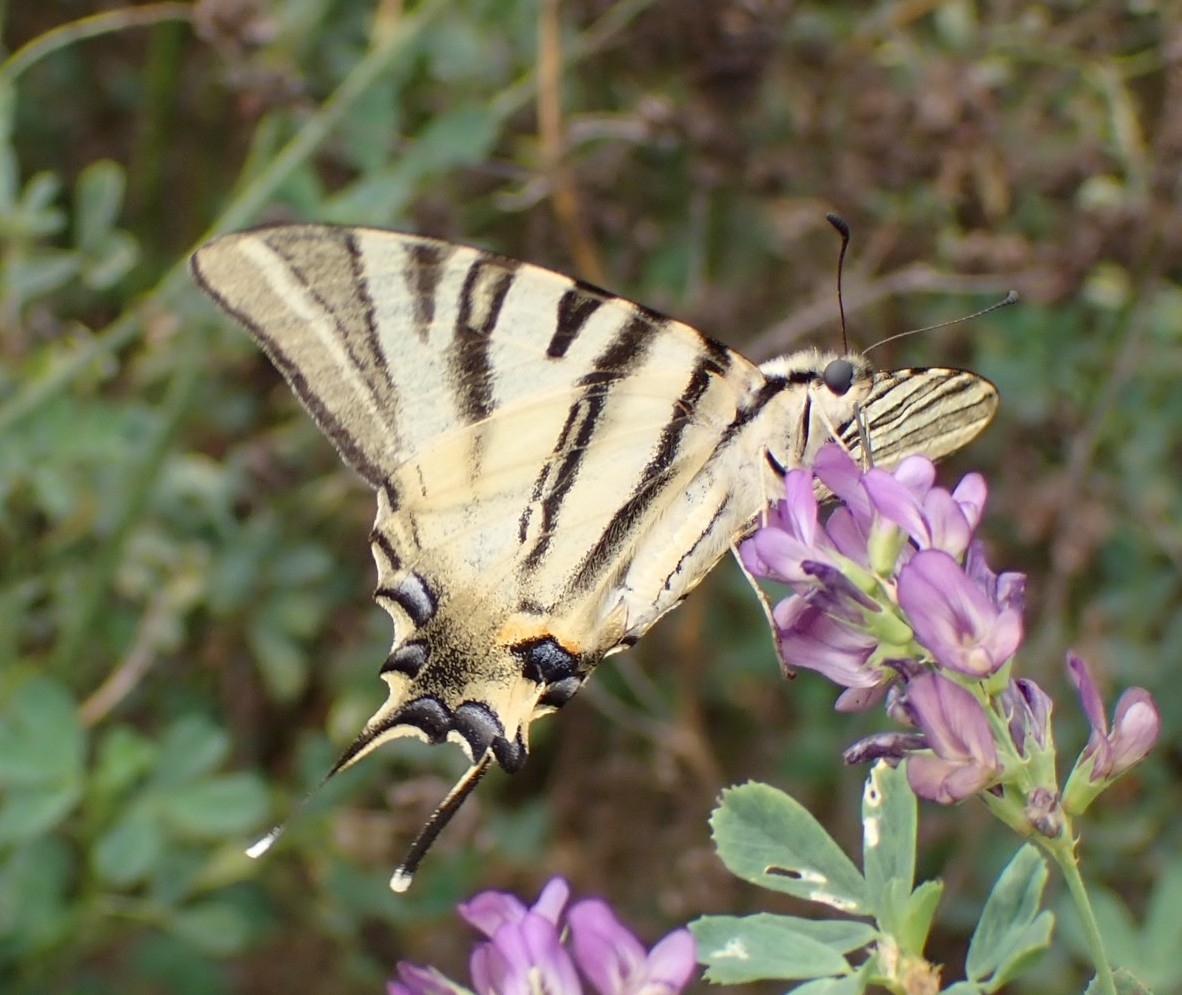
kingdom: Animalia
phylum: Arthropoda
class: Insecta
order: Lepidoptera
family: Papilionidae
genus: Iphiclides
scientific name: Iphiclides podalirius
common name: Scarce swallowtail
